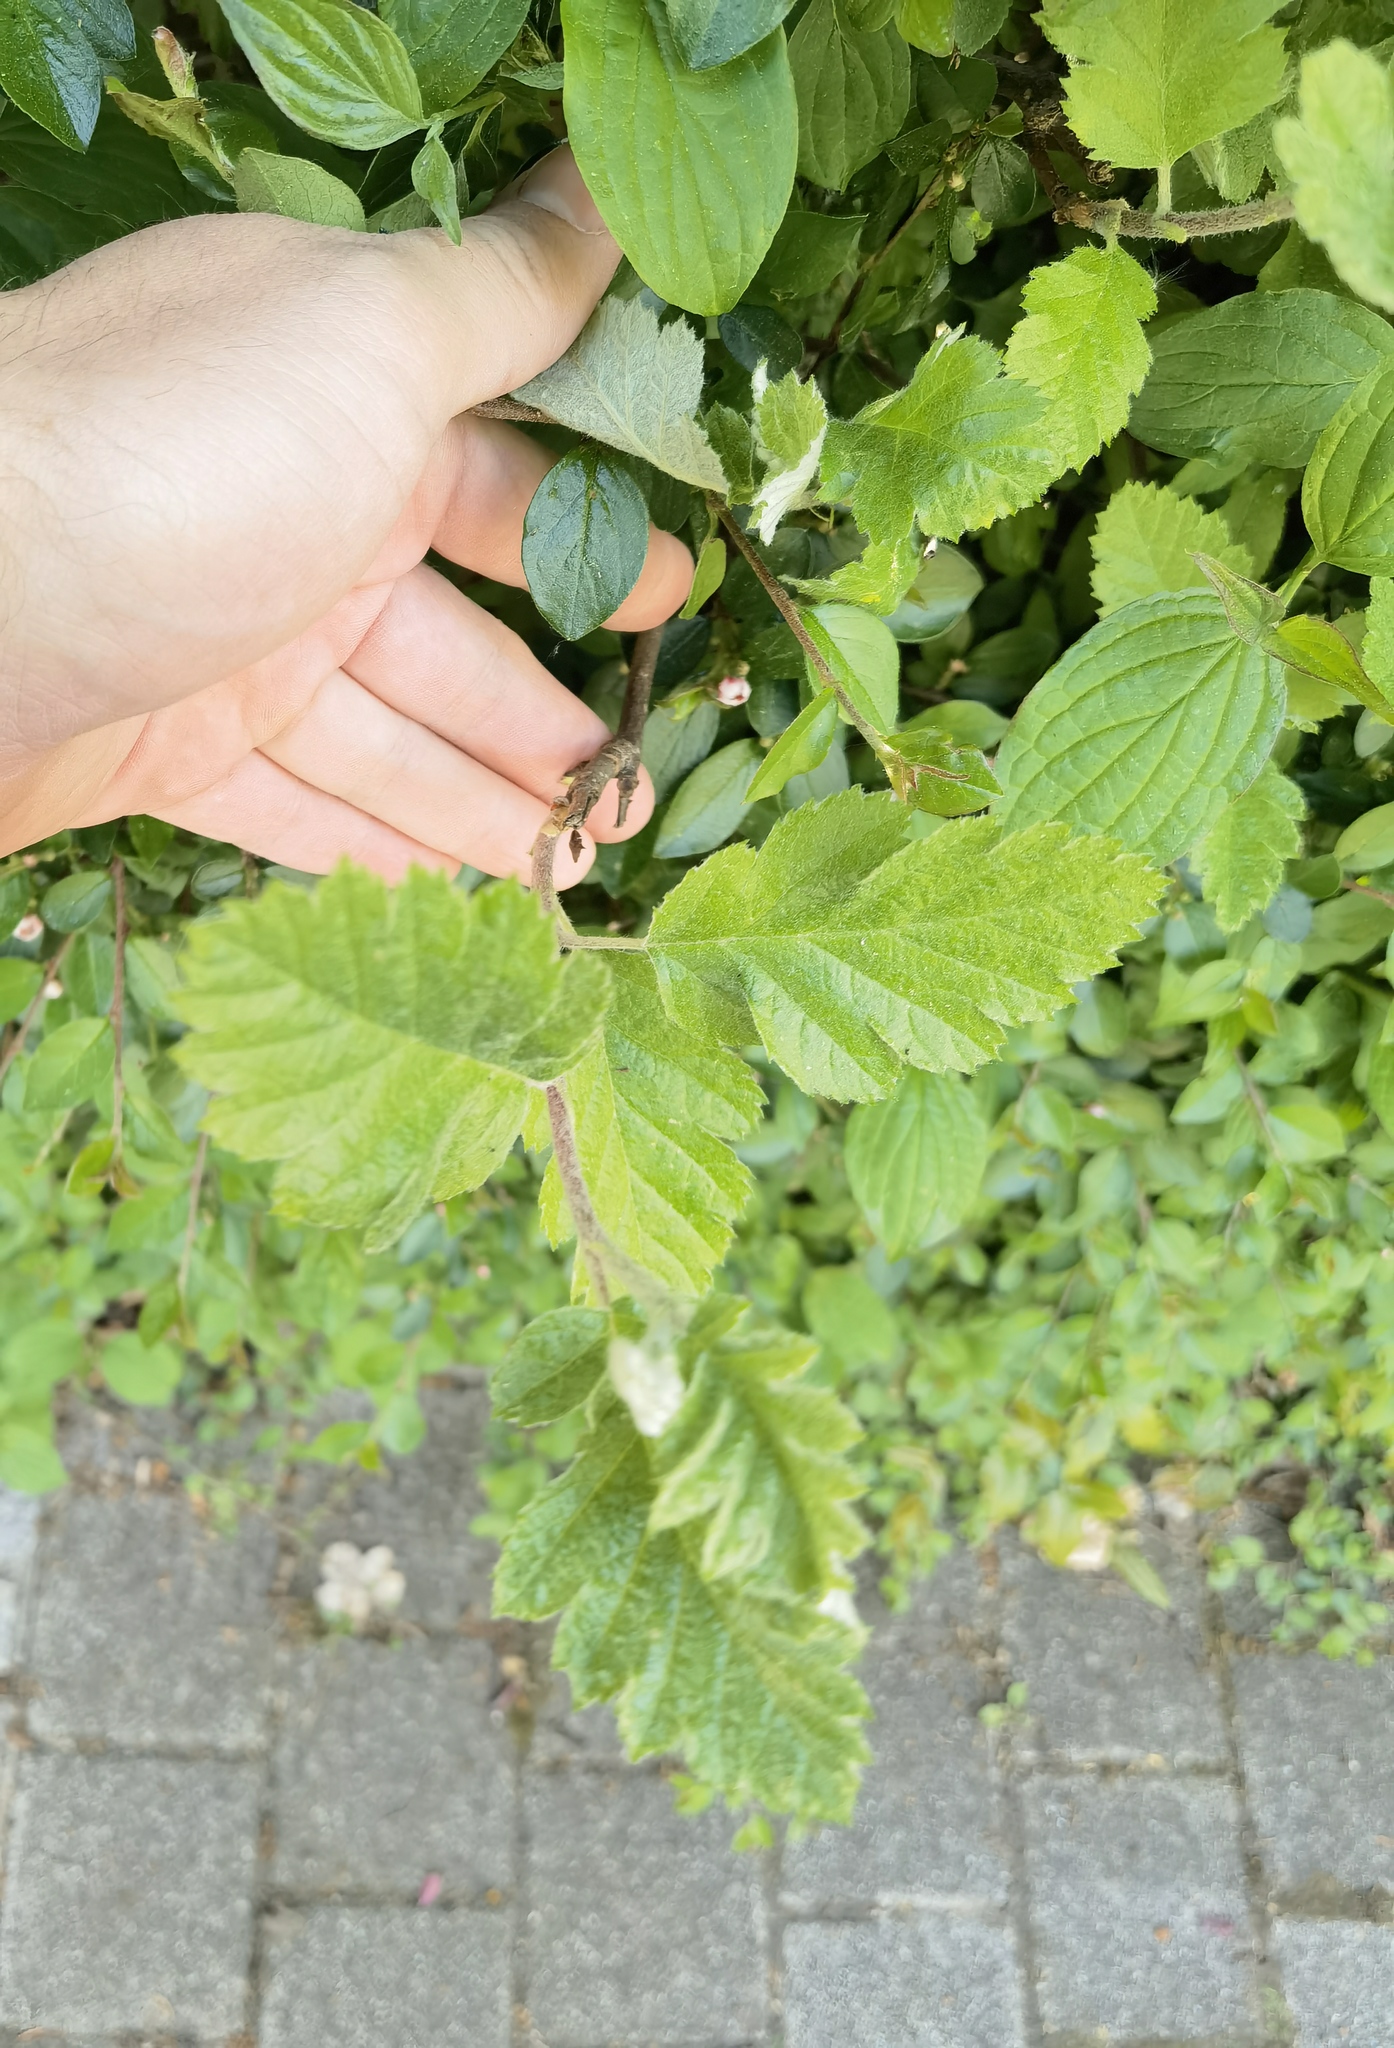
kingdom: Plantae
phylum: Tracheophyta
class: Magnoliopsida
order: Rosales
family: Rosaceae
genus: Hedlundia
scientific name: Hedlundia hybrida
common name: Swedish service-tree
